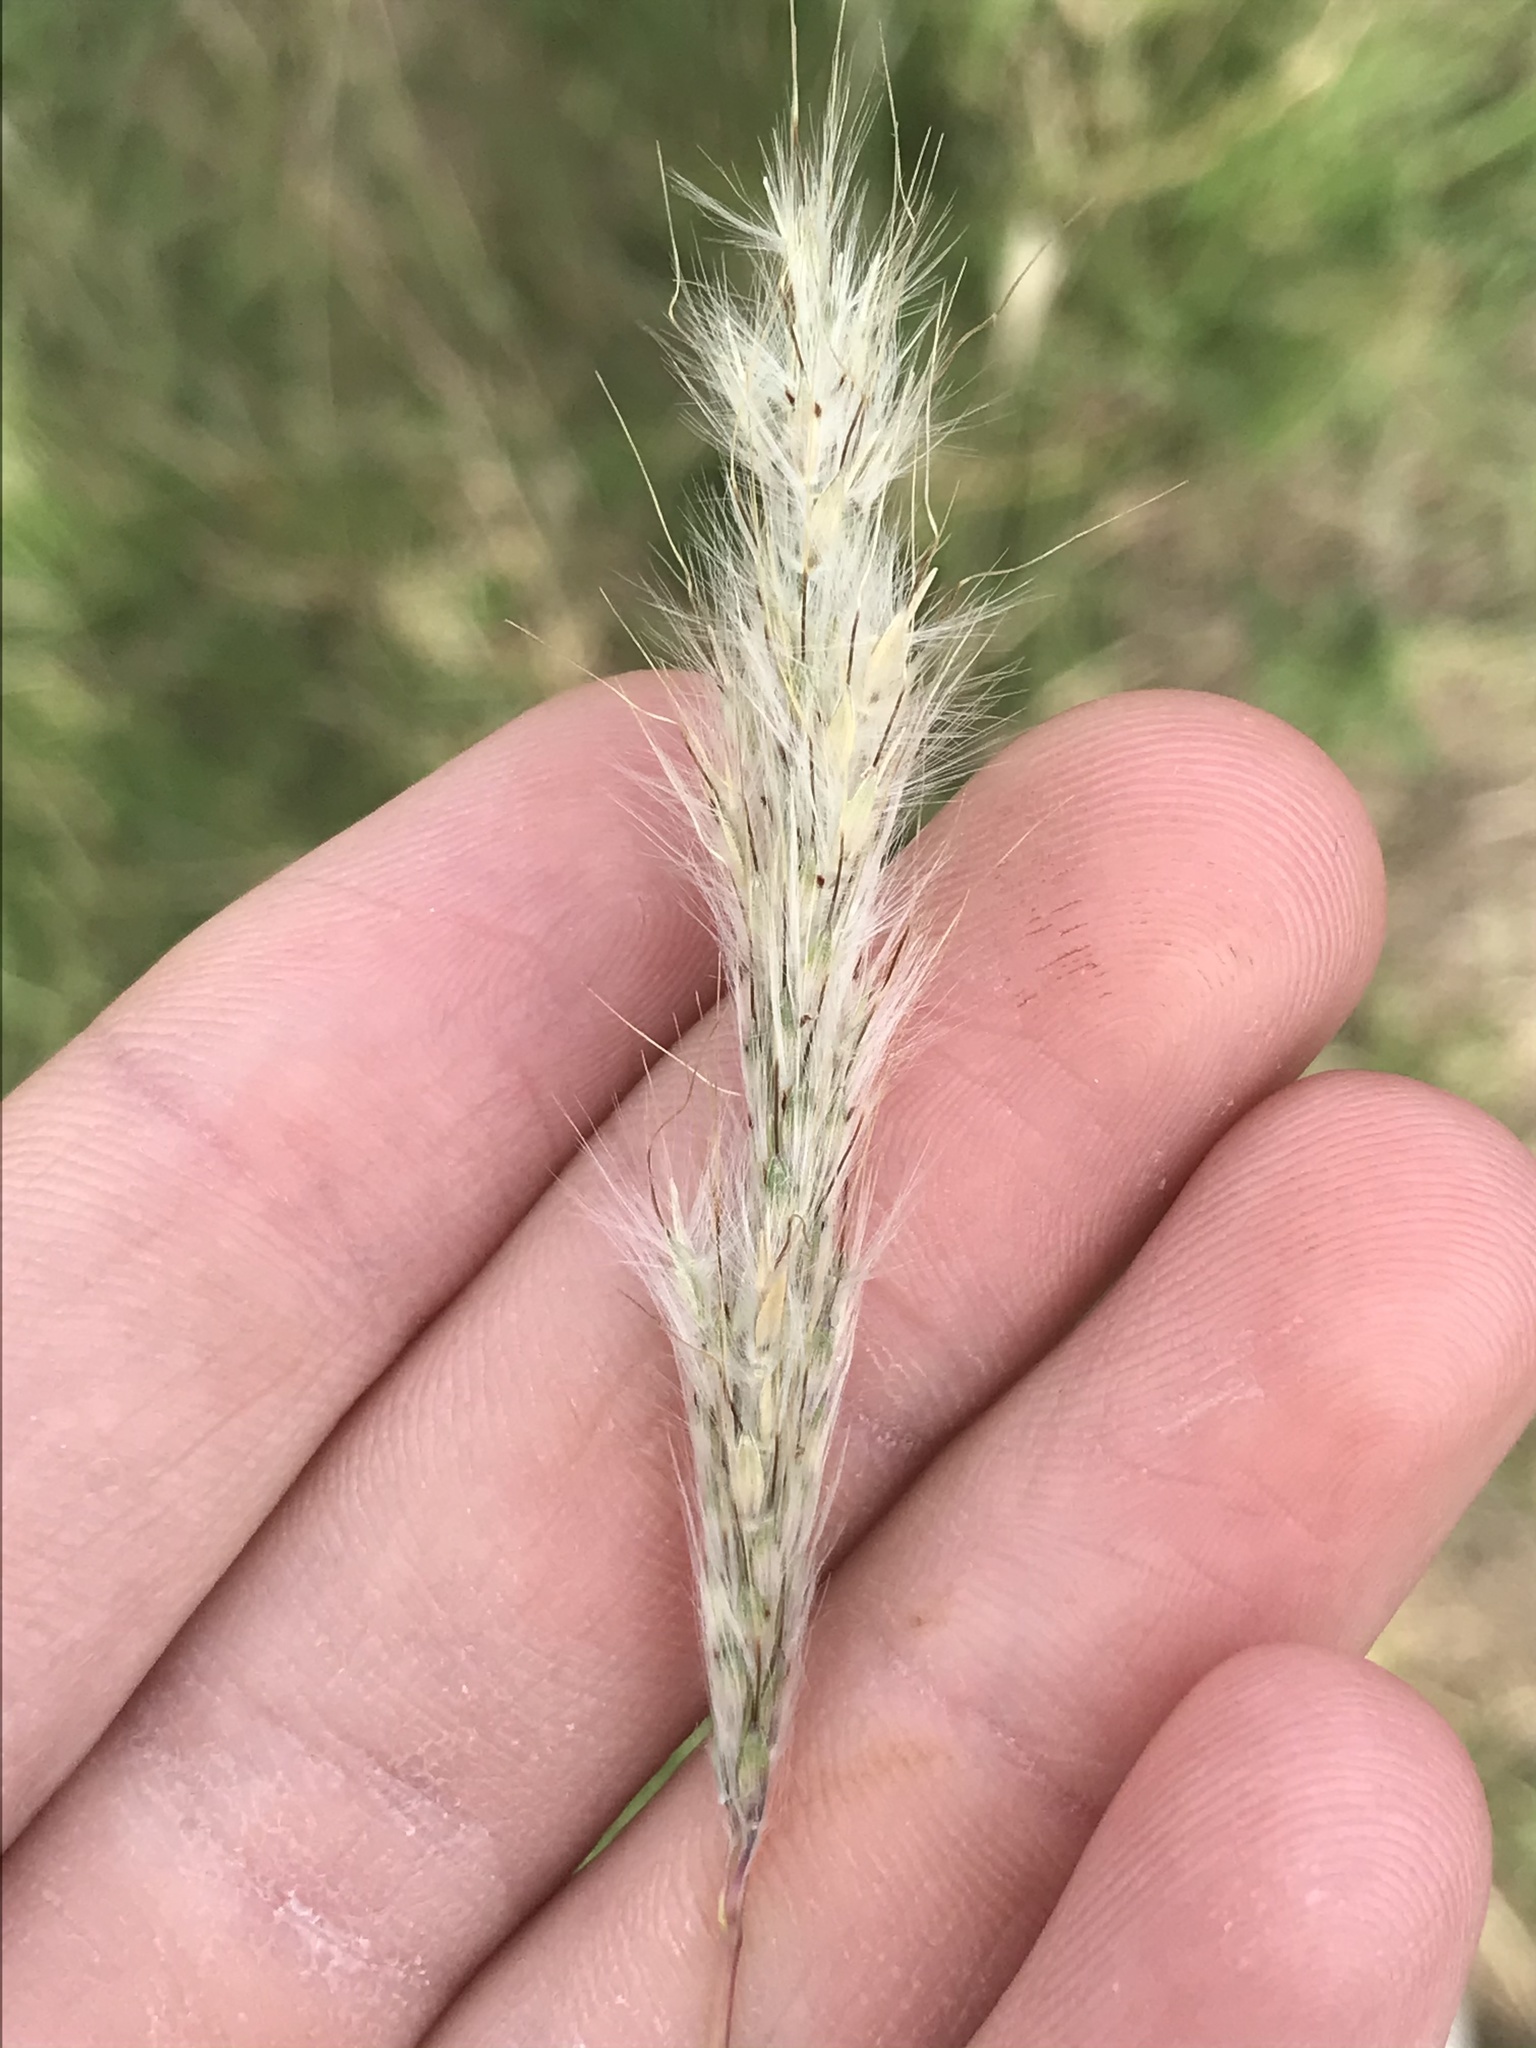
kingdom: Plantae
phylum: Tracheophyta
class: Liliopsida
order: Poales
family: Poaceae
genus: Bothriochloa
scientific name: Bothriochloa barbinodis
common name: Cane bluestem
